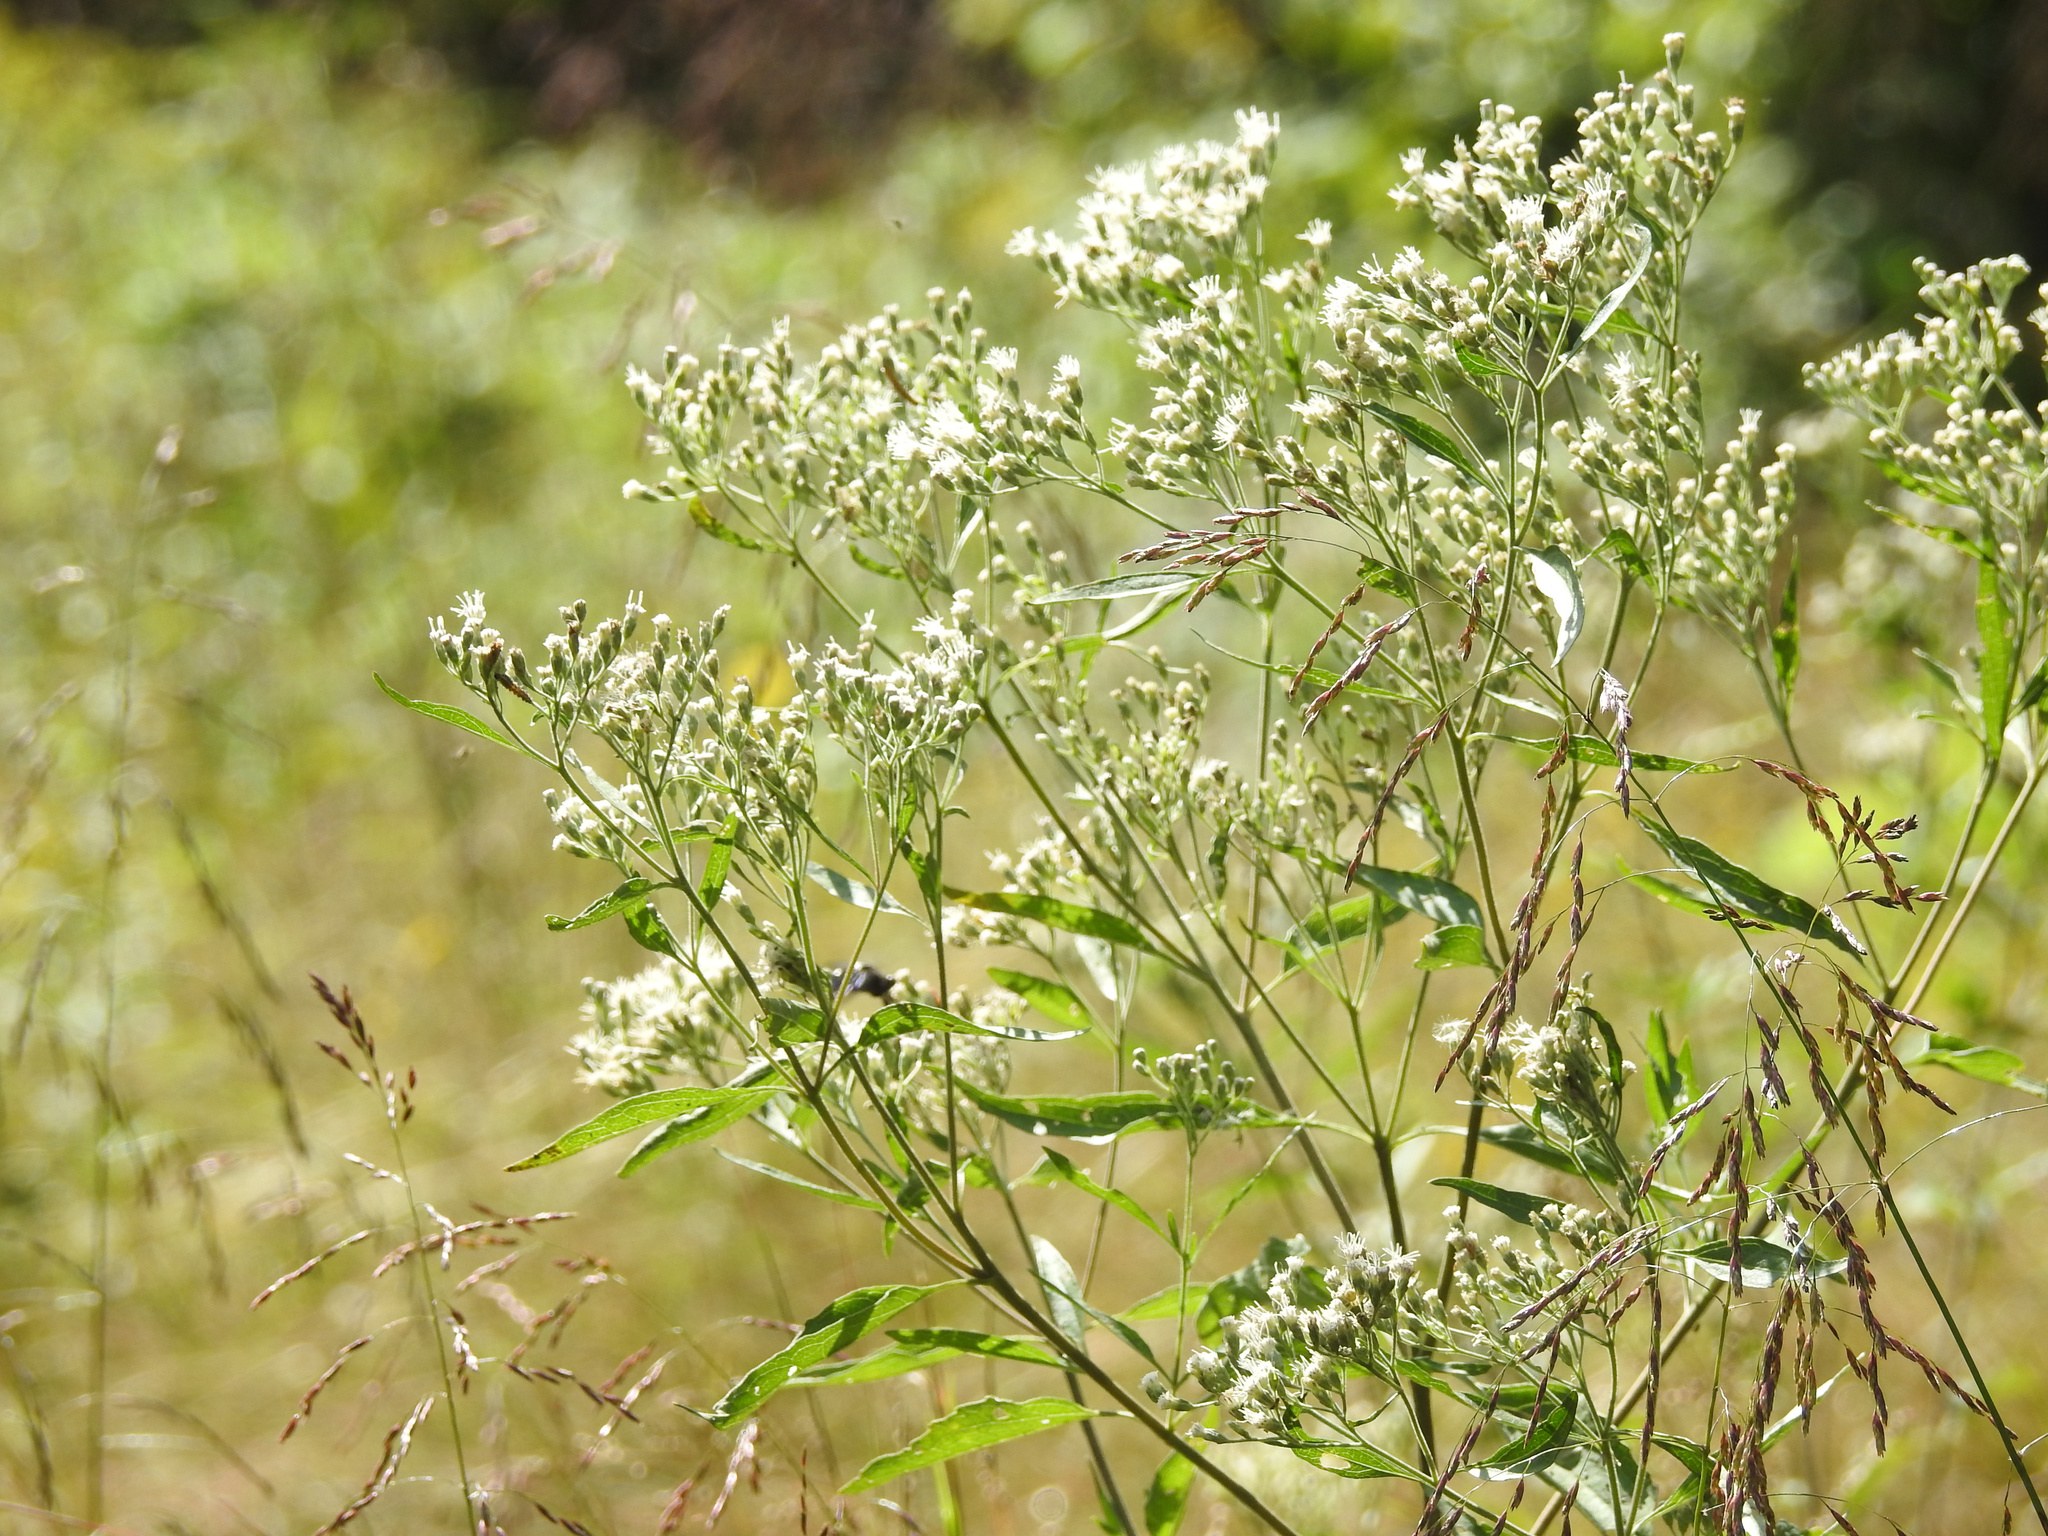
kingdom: Plantae
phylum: Tracheophyta
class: Magnoliopsida
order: Asterales
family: Asteraceae
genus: Eupatorium
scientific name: Eupatorium serotinum
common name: Late boneset
